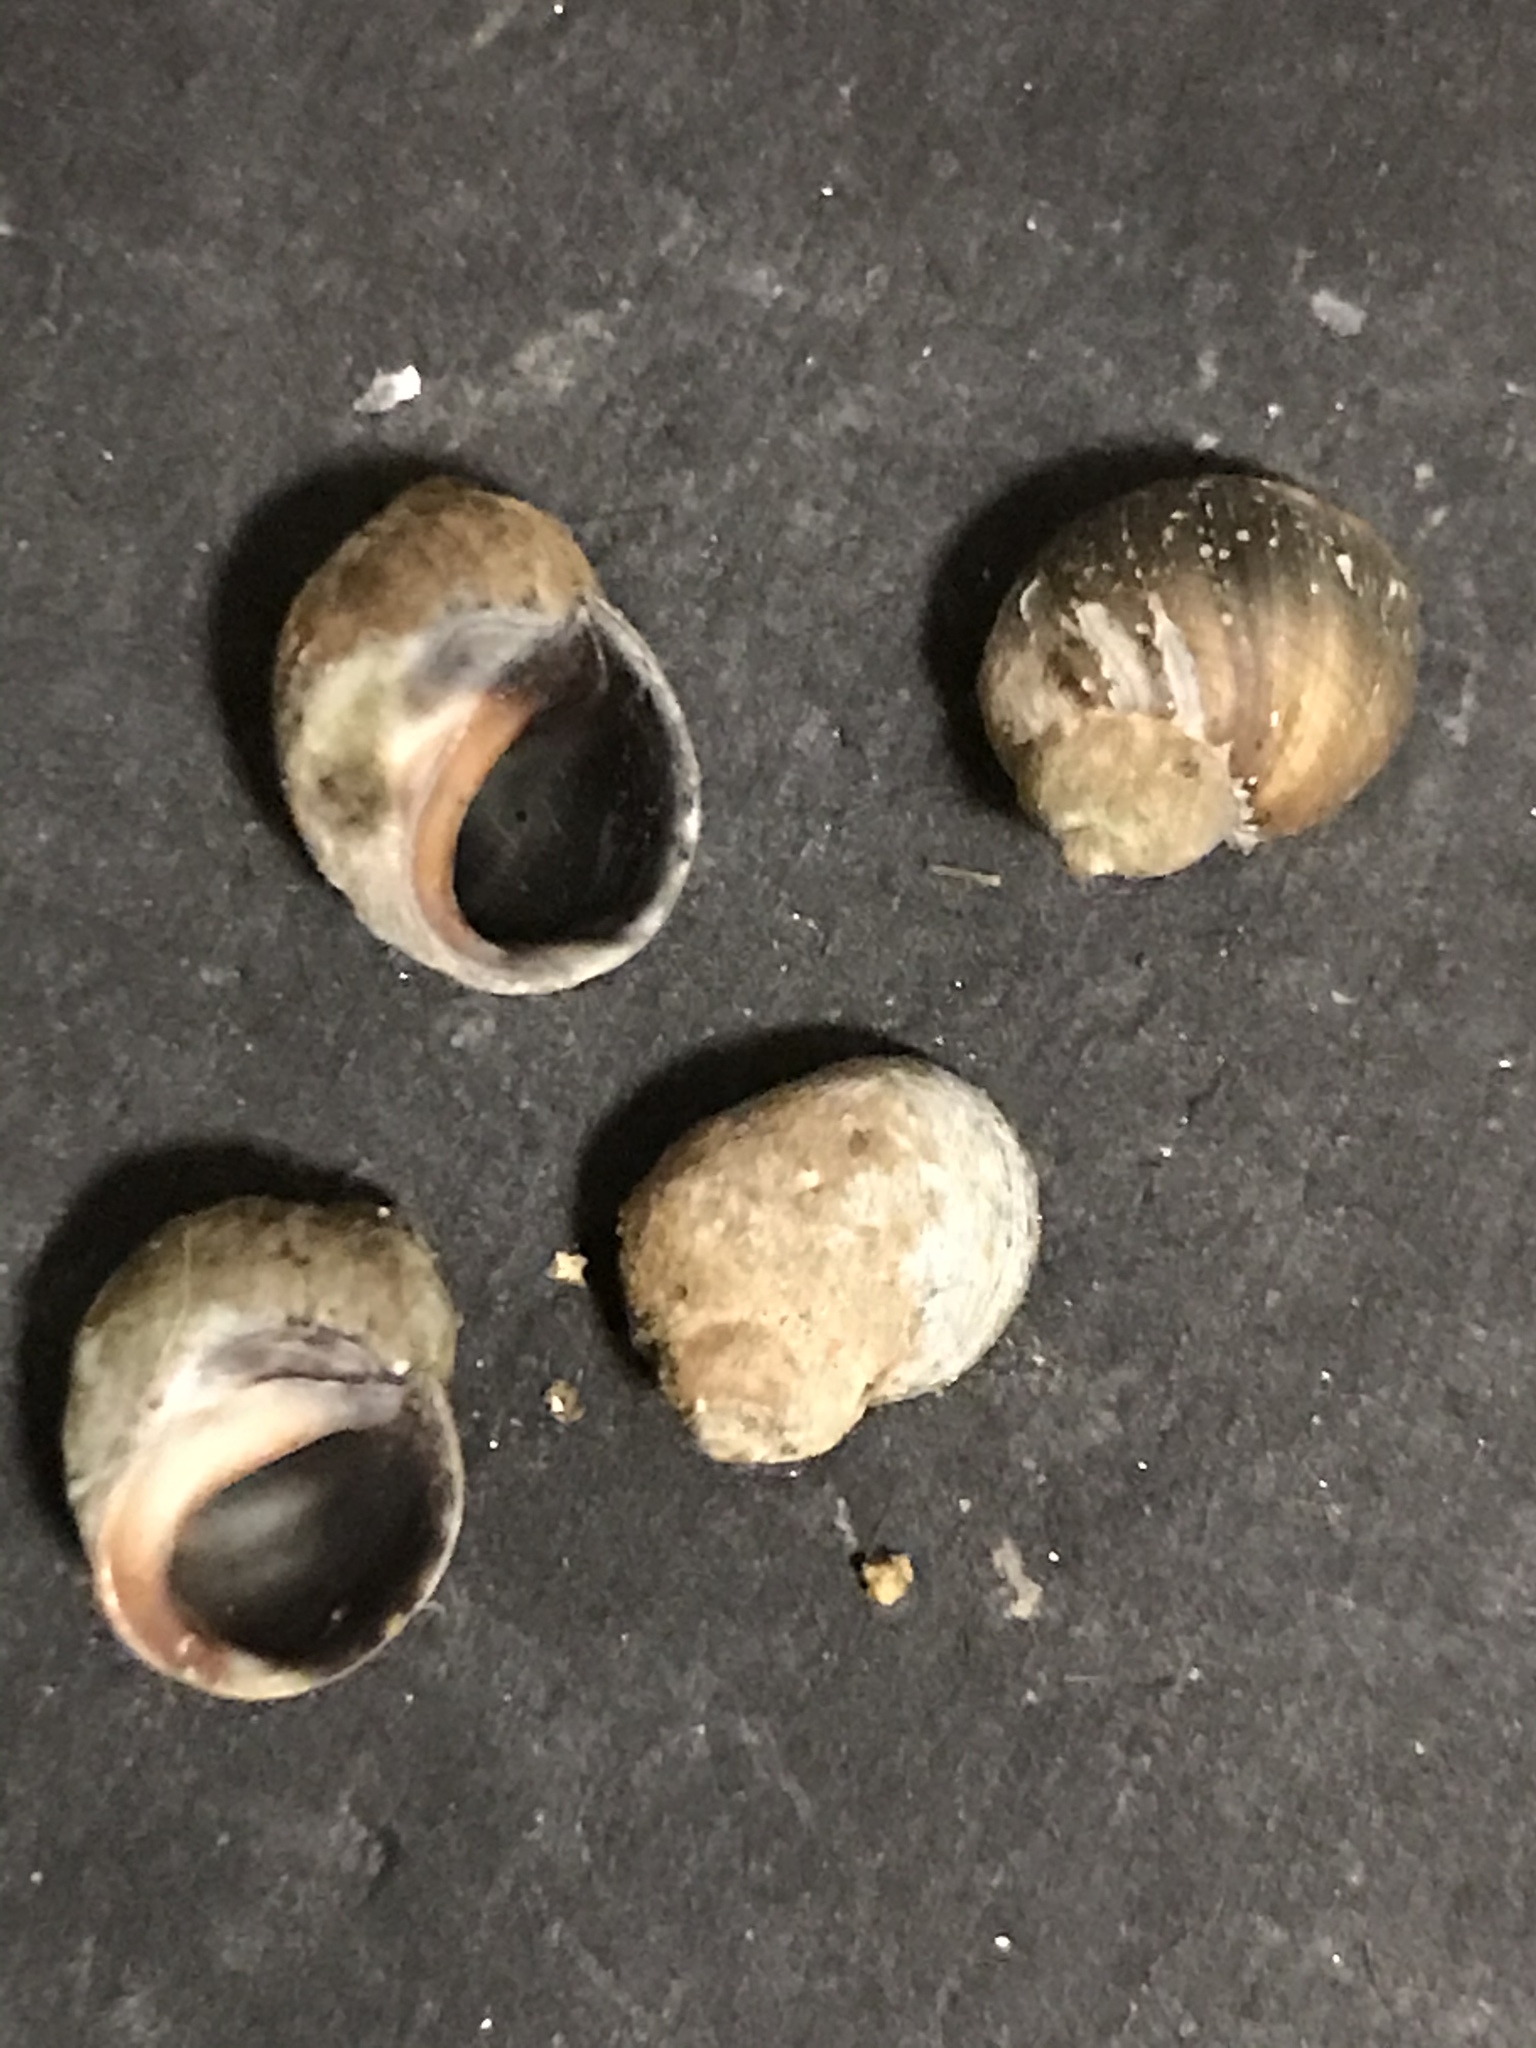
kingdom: Animalia
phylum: Mollusca
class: Gastropoda
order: Littorinimorpha
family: Littorinidae
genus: Littorina
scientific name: Littorina keenae
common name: Eroded periwinkle
